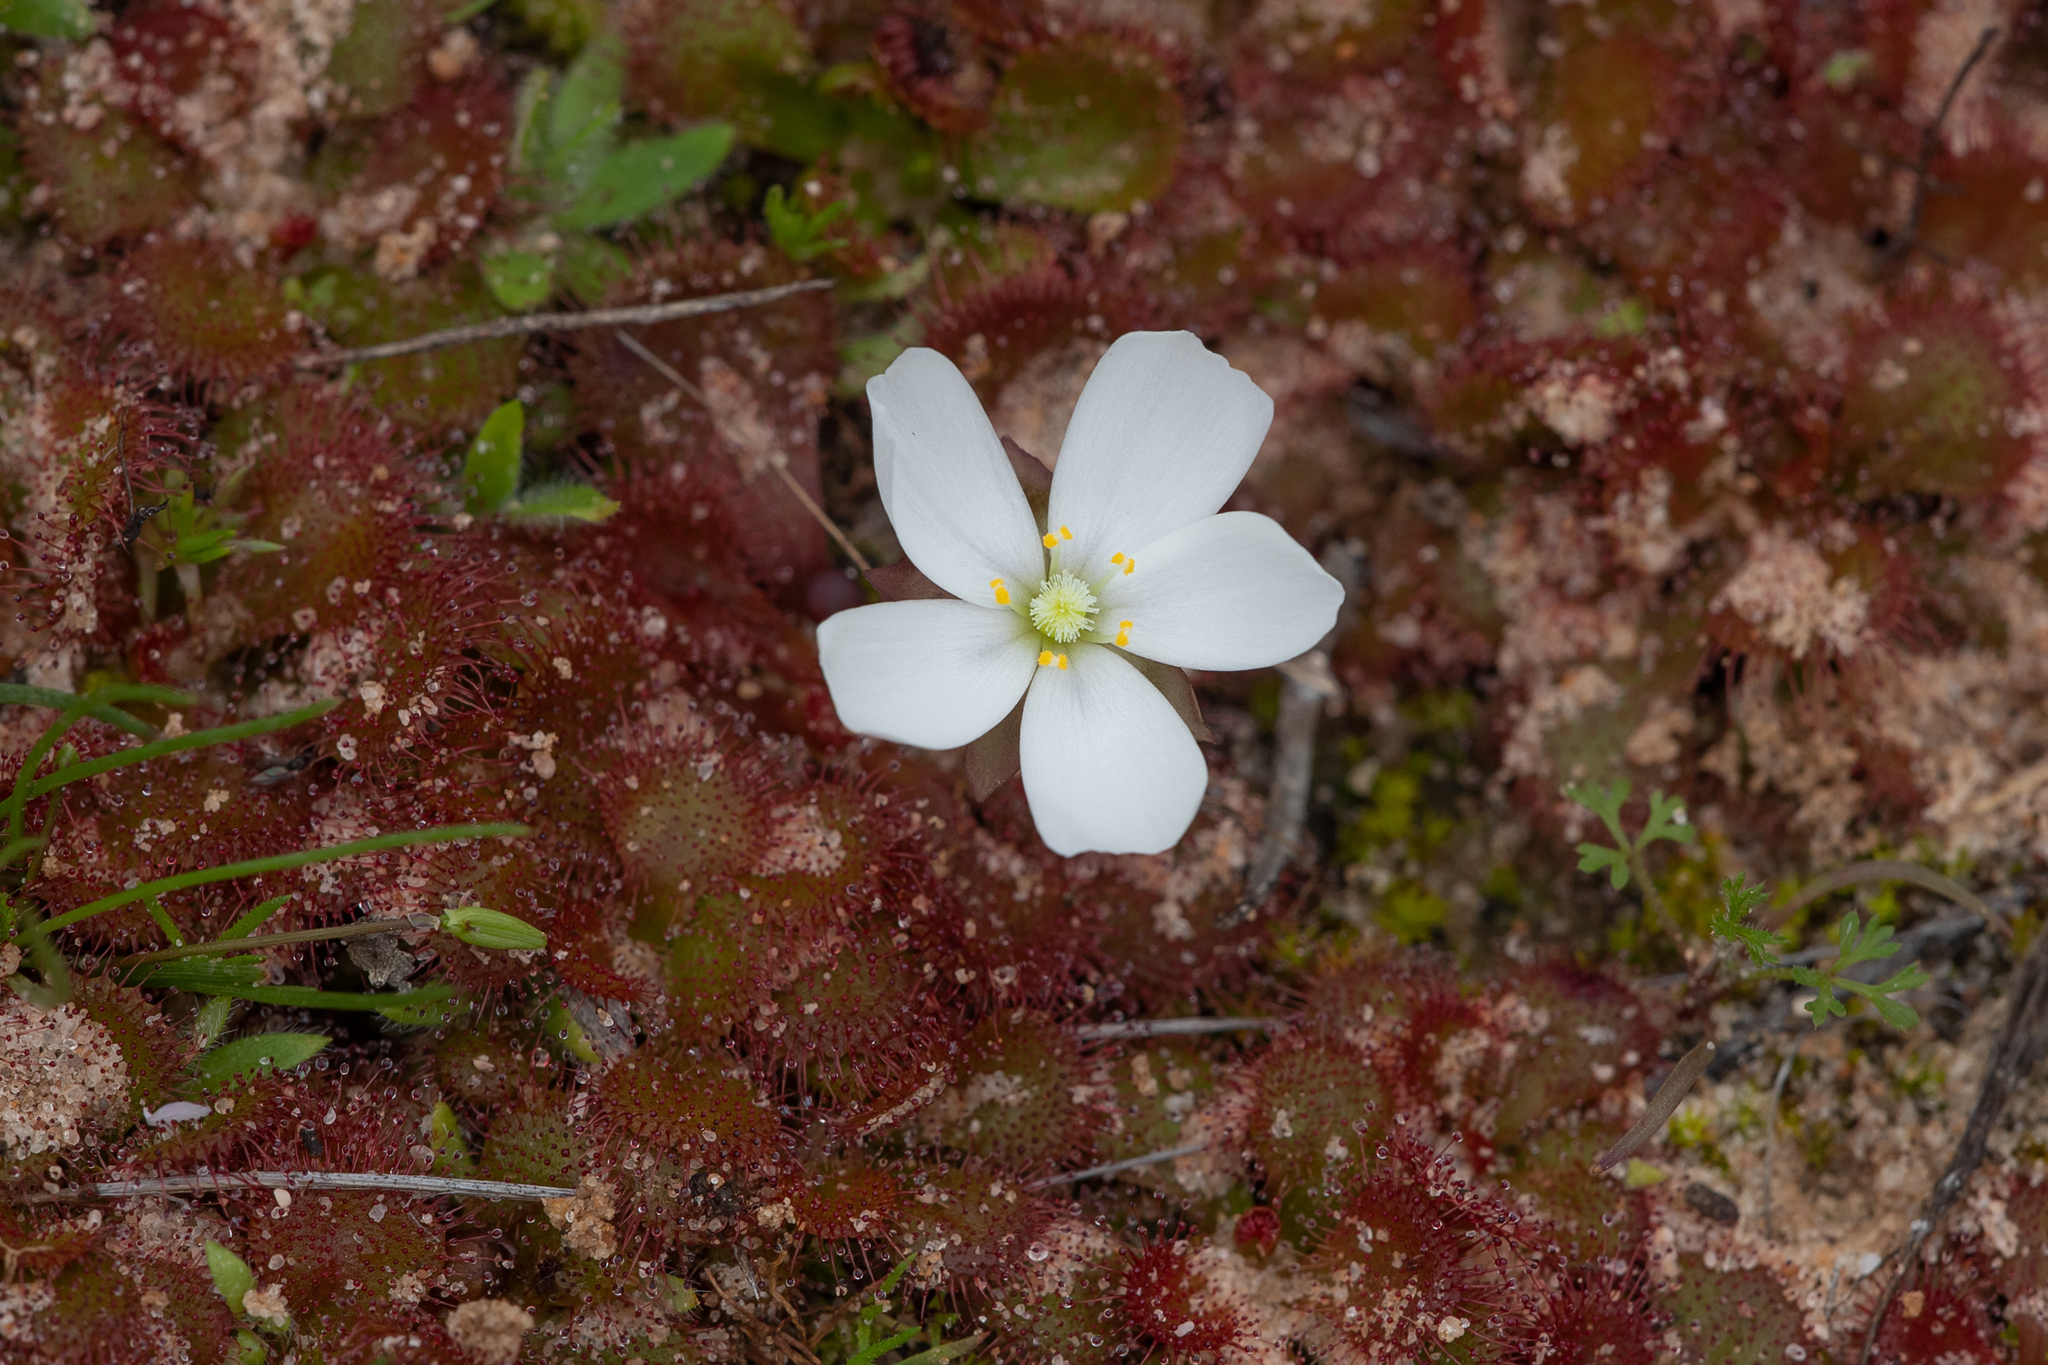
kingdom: Plantae
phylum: Tracheophyta
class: Magnoliopsida
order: Caryophyllales
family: Droseraceae
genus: Drosera
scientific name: Drosera aberrans
